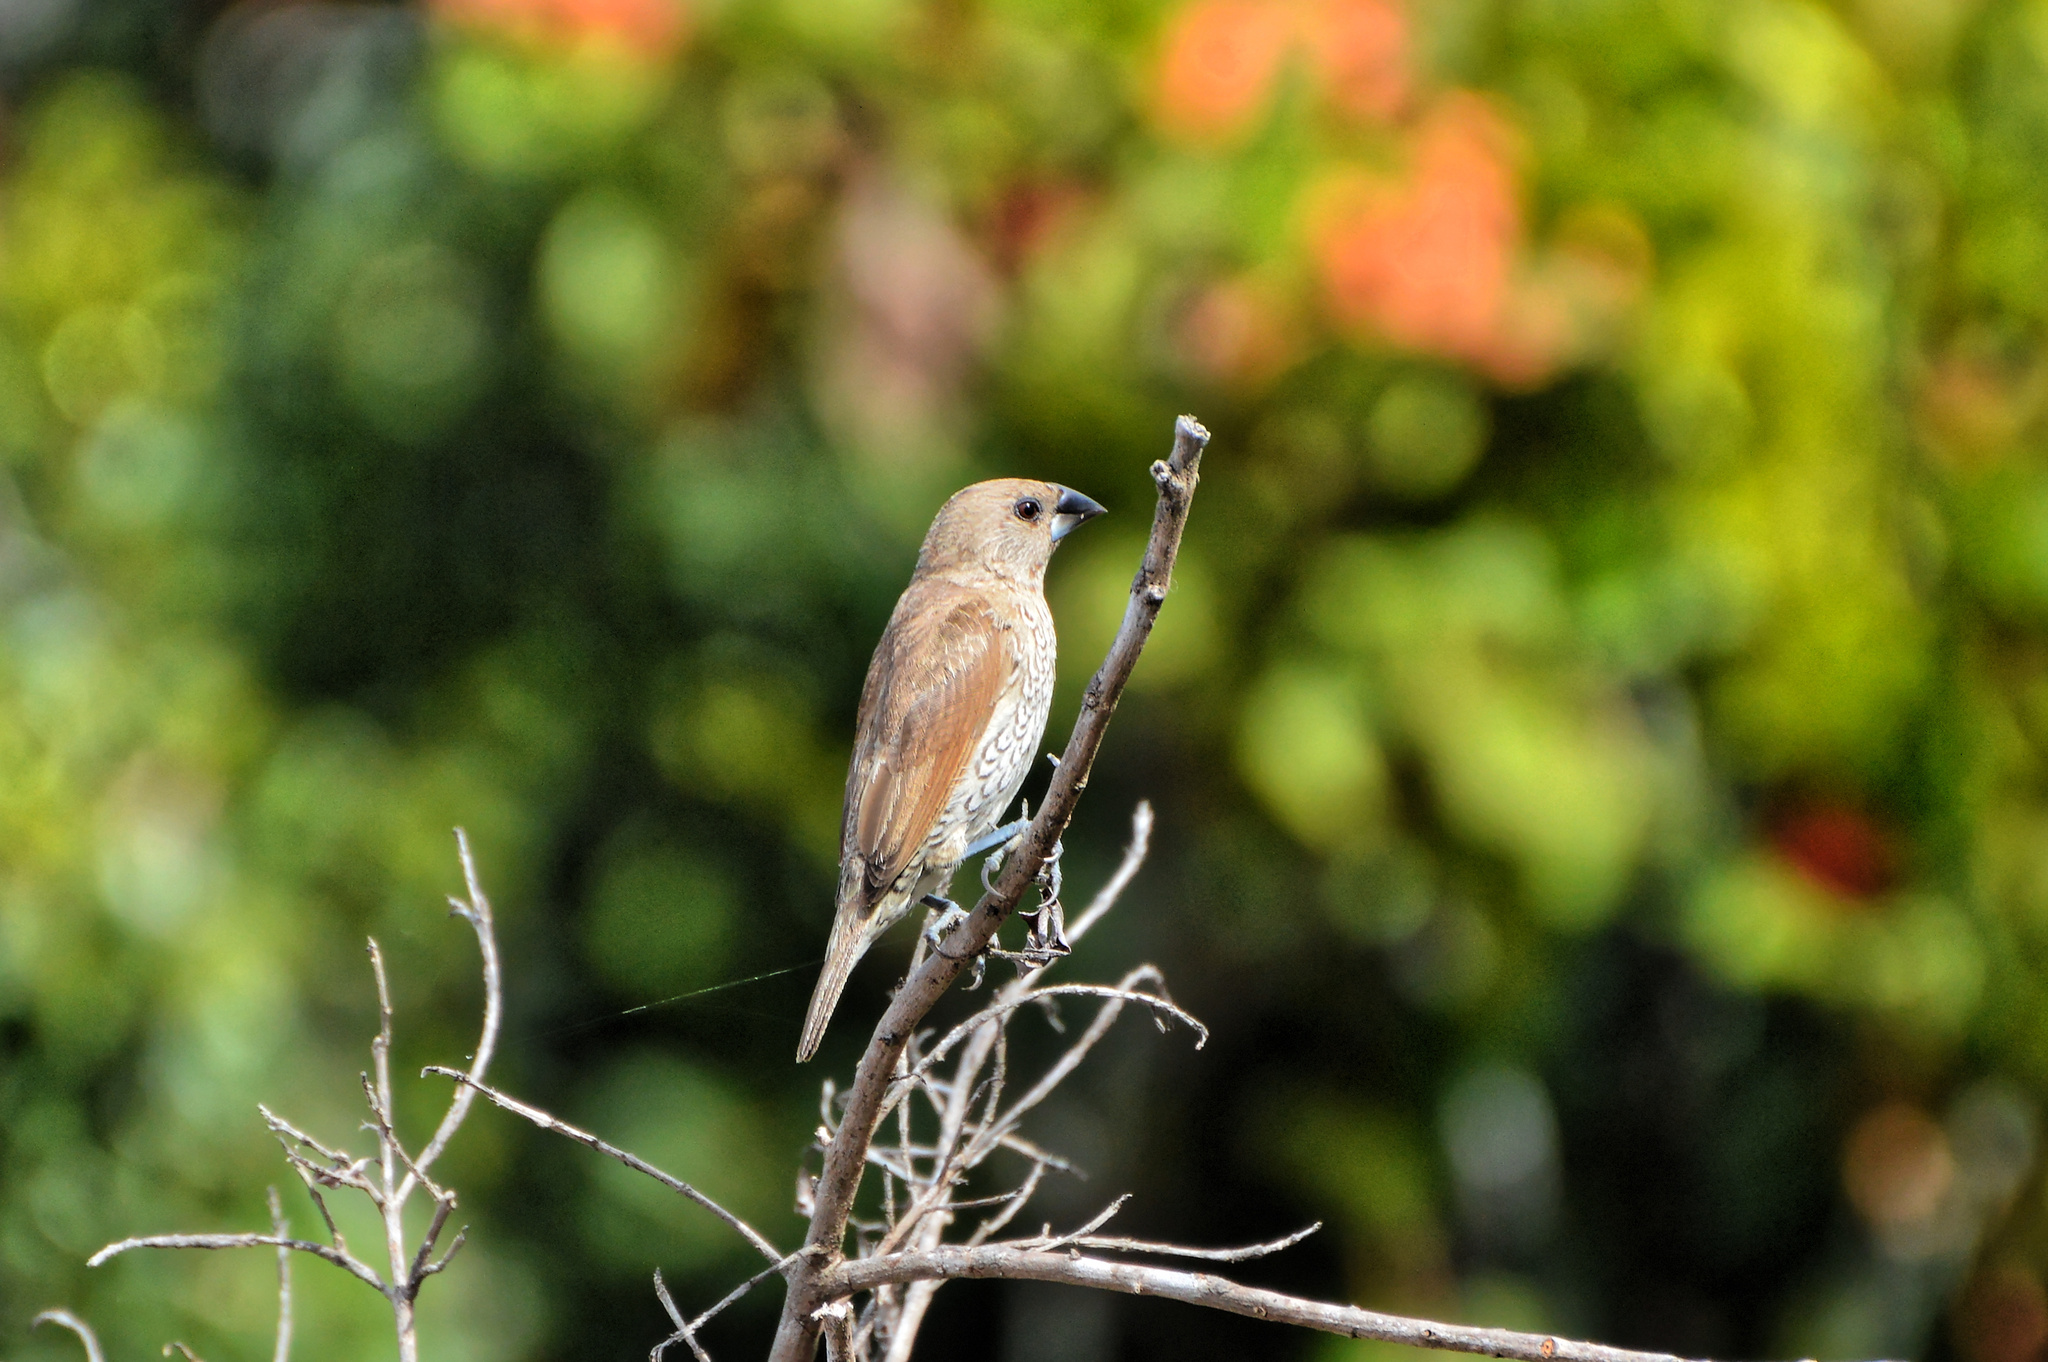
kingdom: Animalia
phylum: Chordata
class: Aves
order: Passeriformes
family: Estrildidae
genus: Lonchura
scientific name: Lonchura punctulata
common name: Scaly-breasted munia
